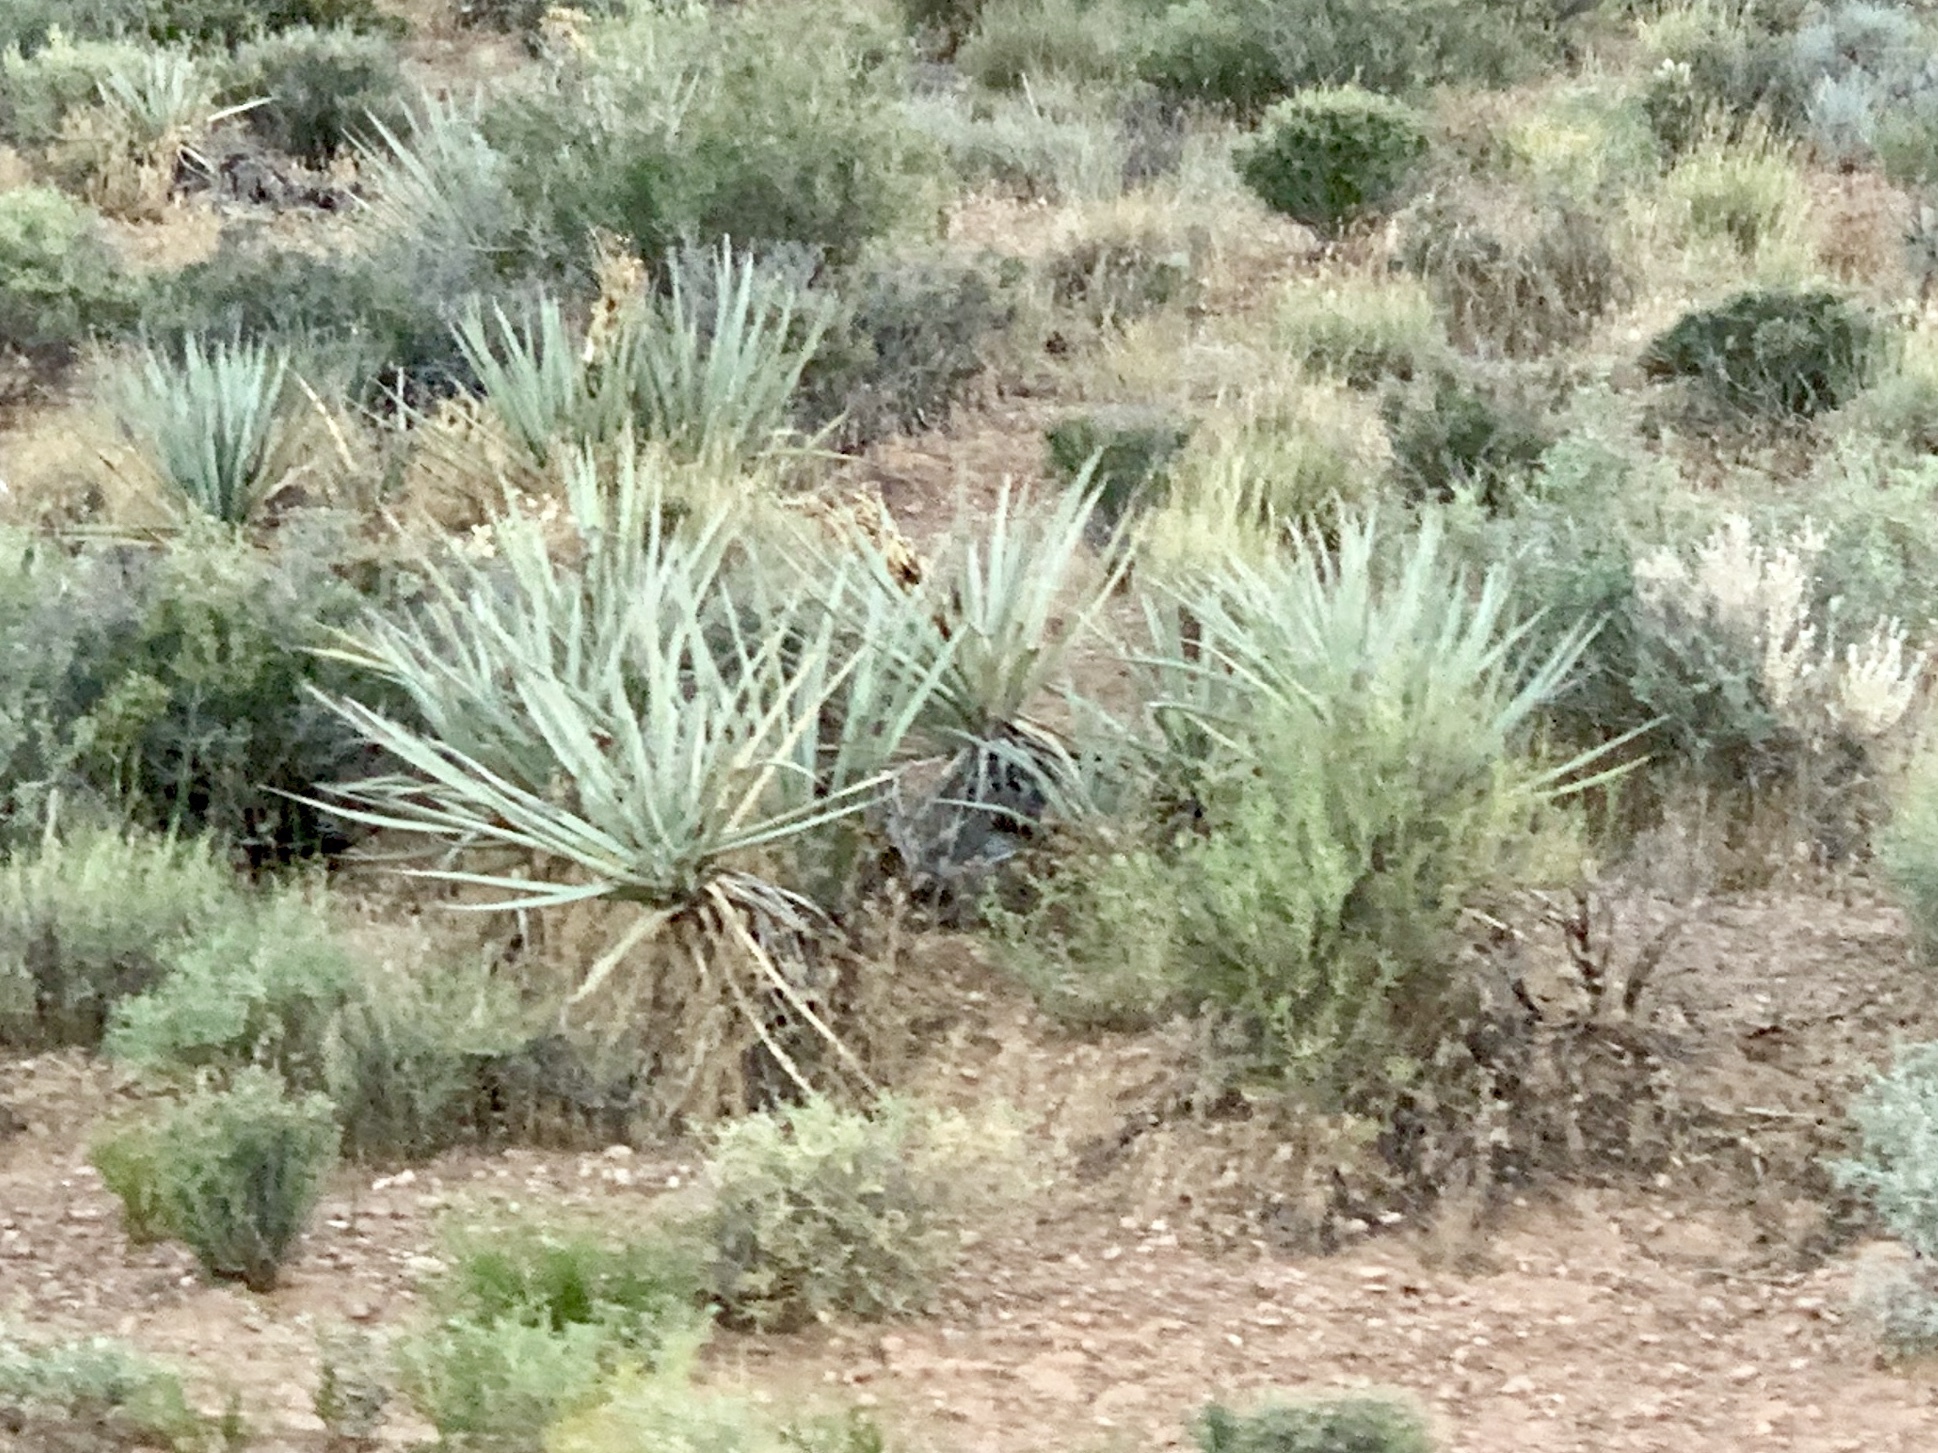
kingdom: Plantae
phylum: Tracheophyta
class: Liliopsida
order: Asparagales
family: Asparagaceae
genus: Yucca
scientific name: Yucca baccata
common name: Banana yucca
